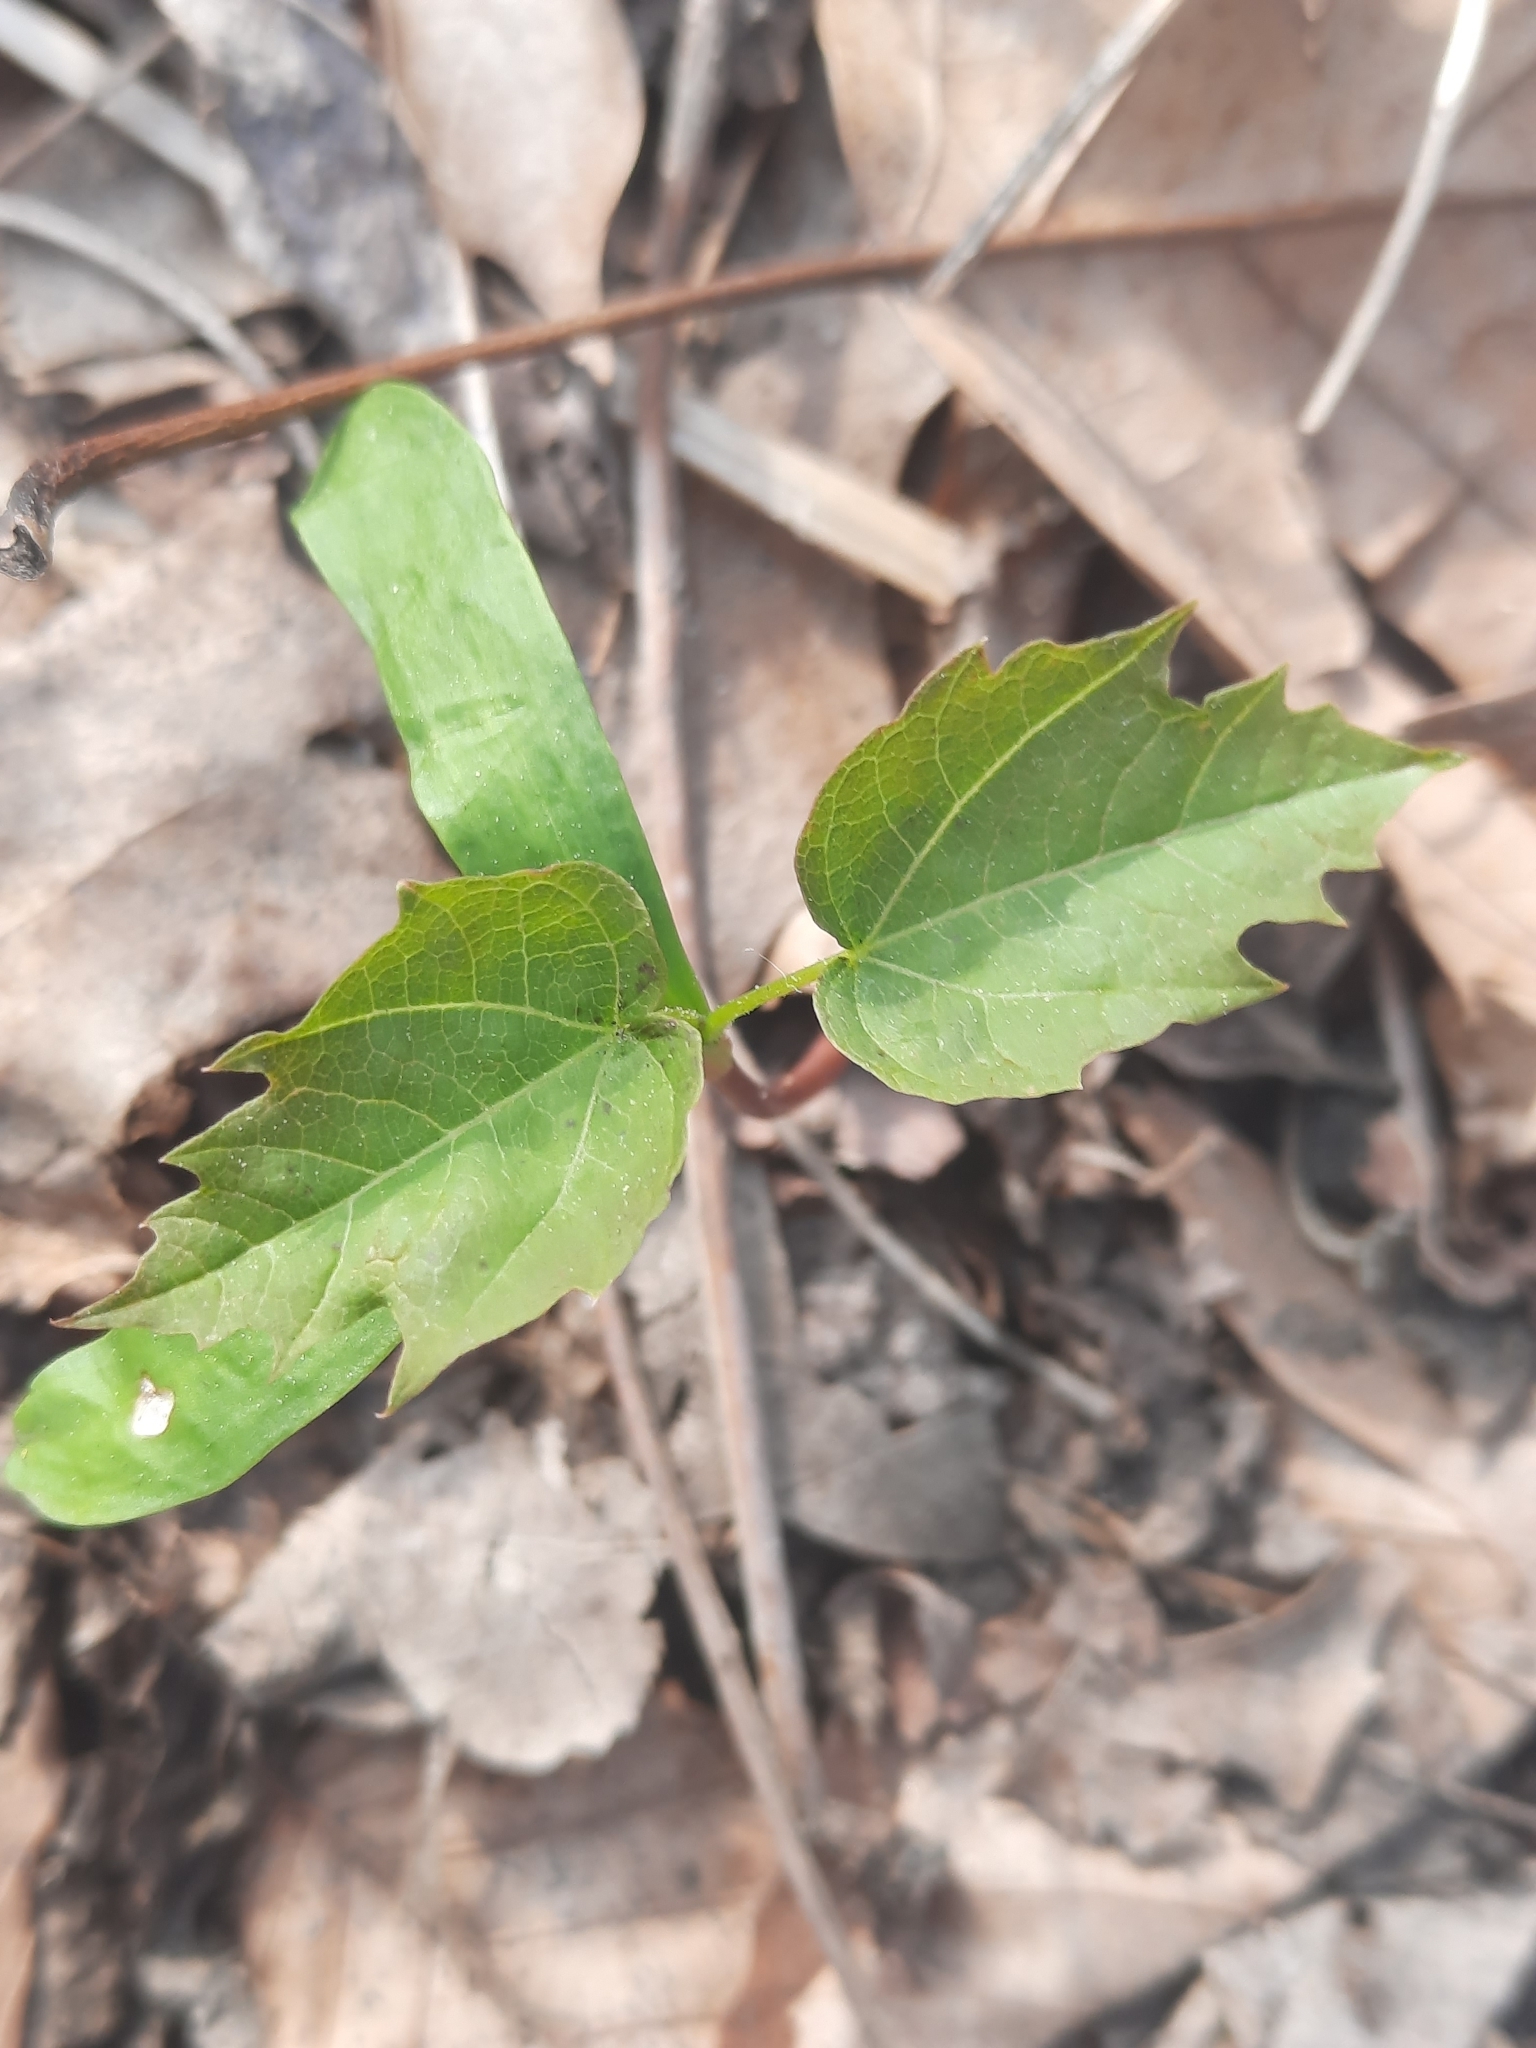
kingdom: Plantae
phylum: Tracheophyta
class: Magnoliopsida
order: Sapindales
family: Sapindaceae
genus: Acer
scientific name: Acer rubrum
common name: Red maple
